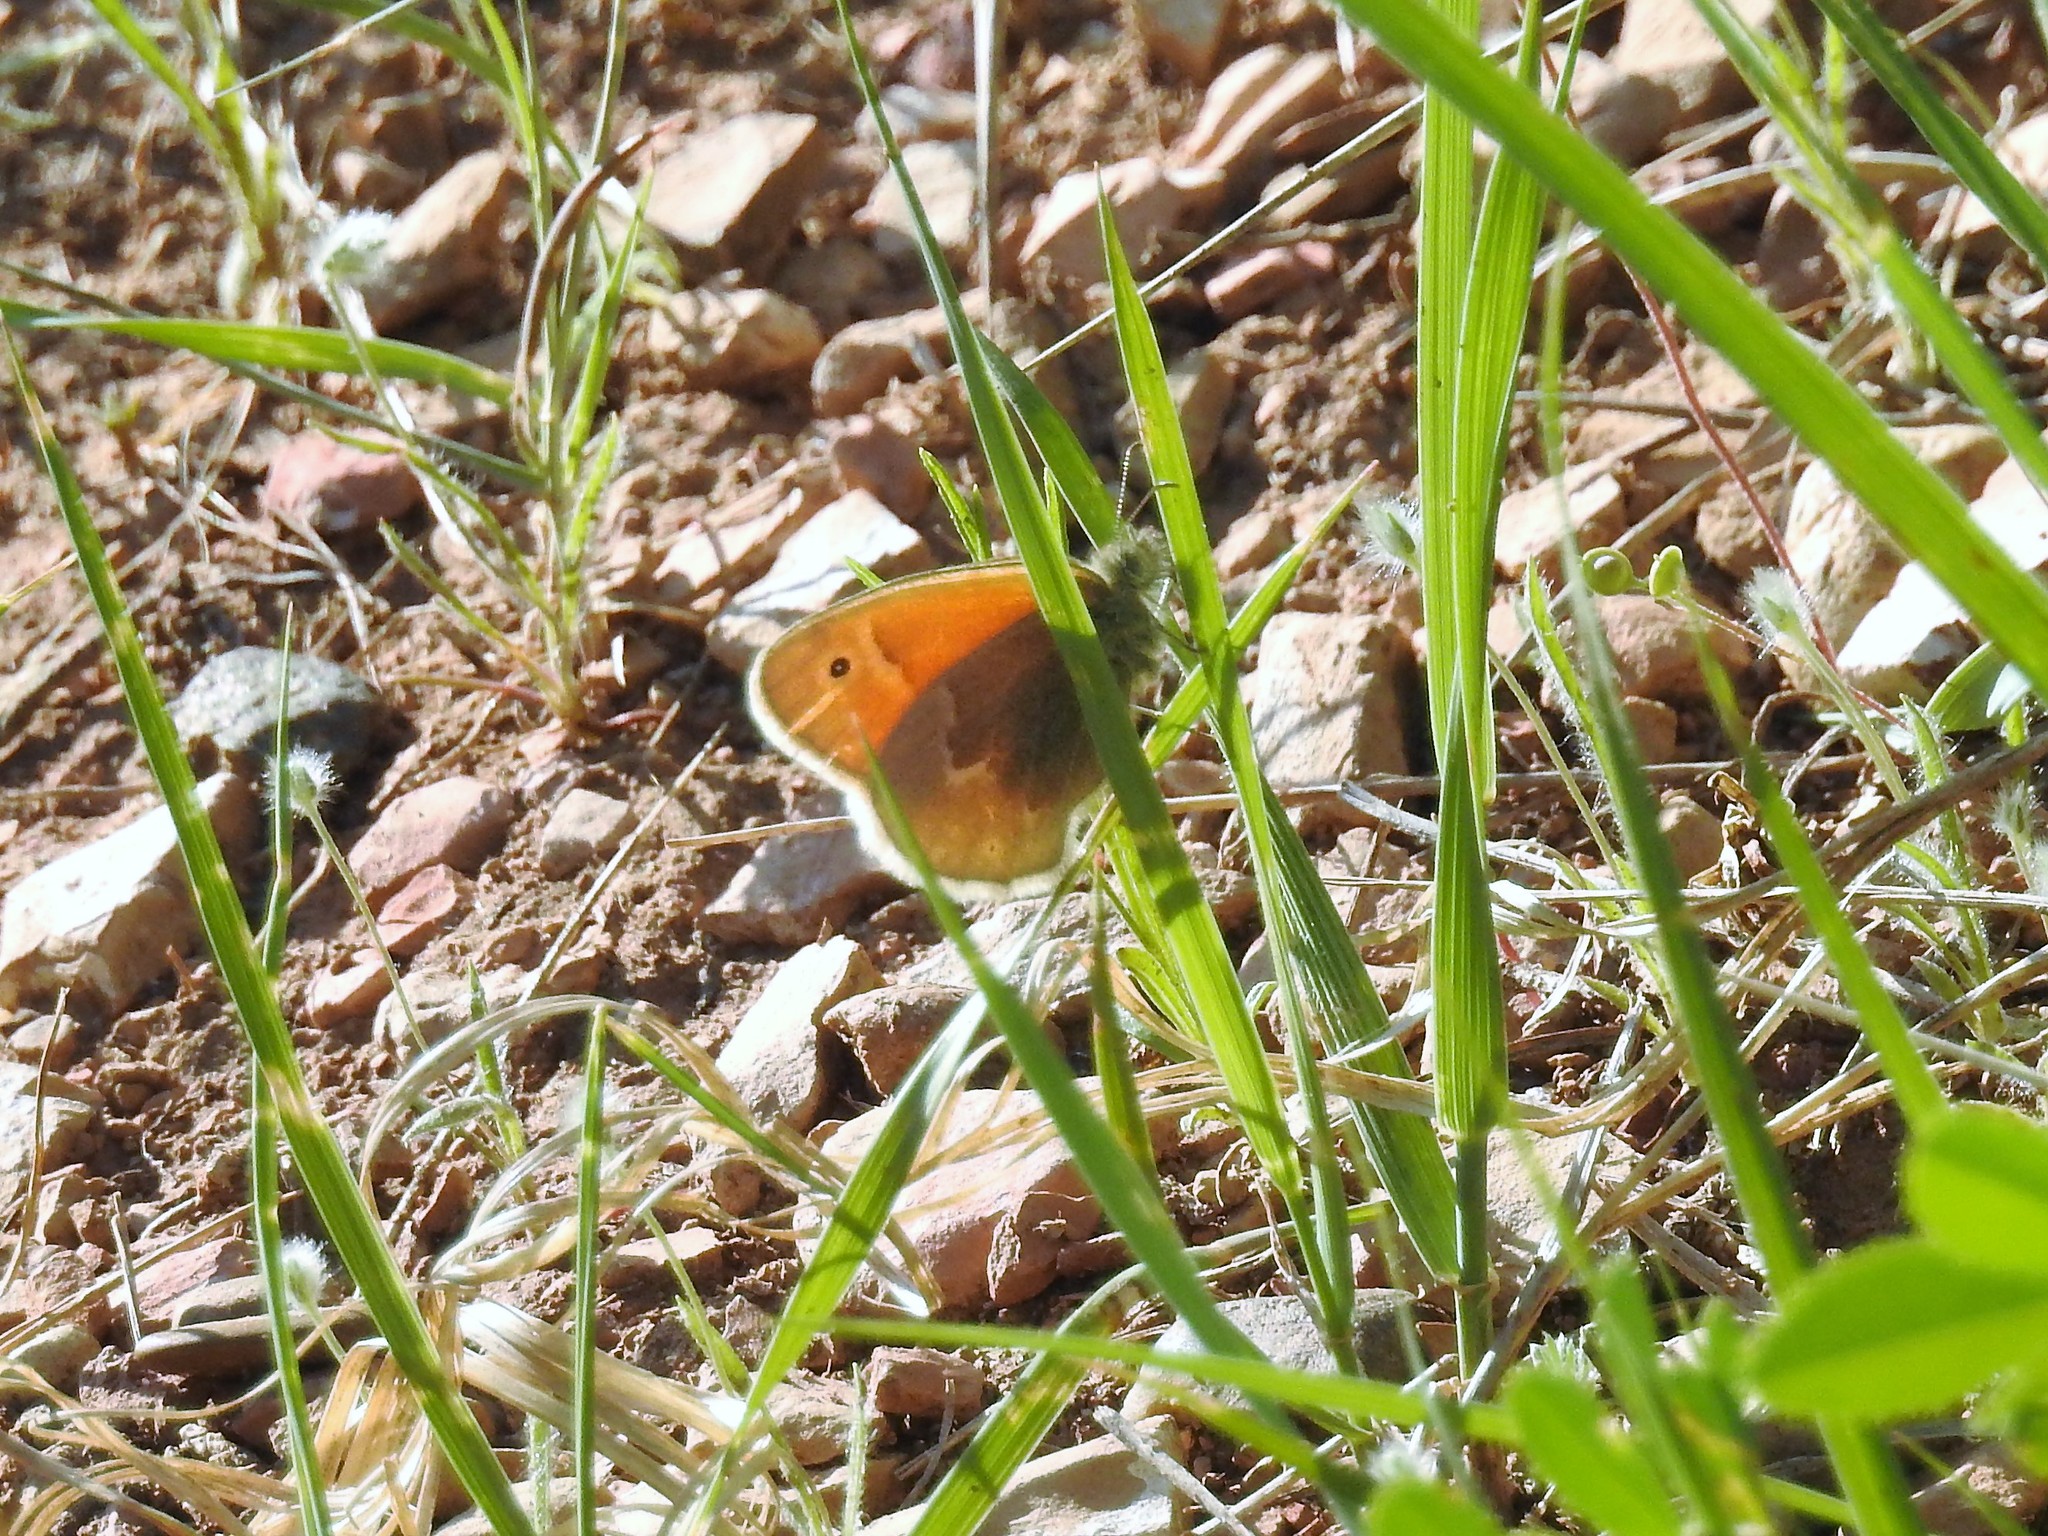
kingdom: Animalia
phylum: Arthropoda
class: Insecta
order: Lepidoptera
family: Nymphalidae
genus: Coenonympha
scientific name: Coenonympha california
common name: Common ringlet
